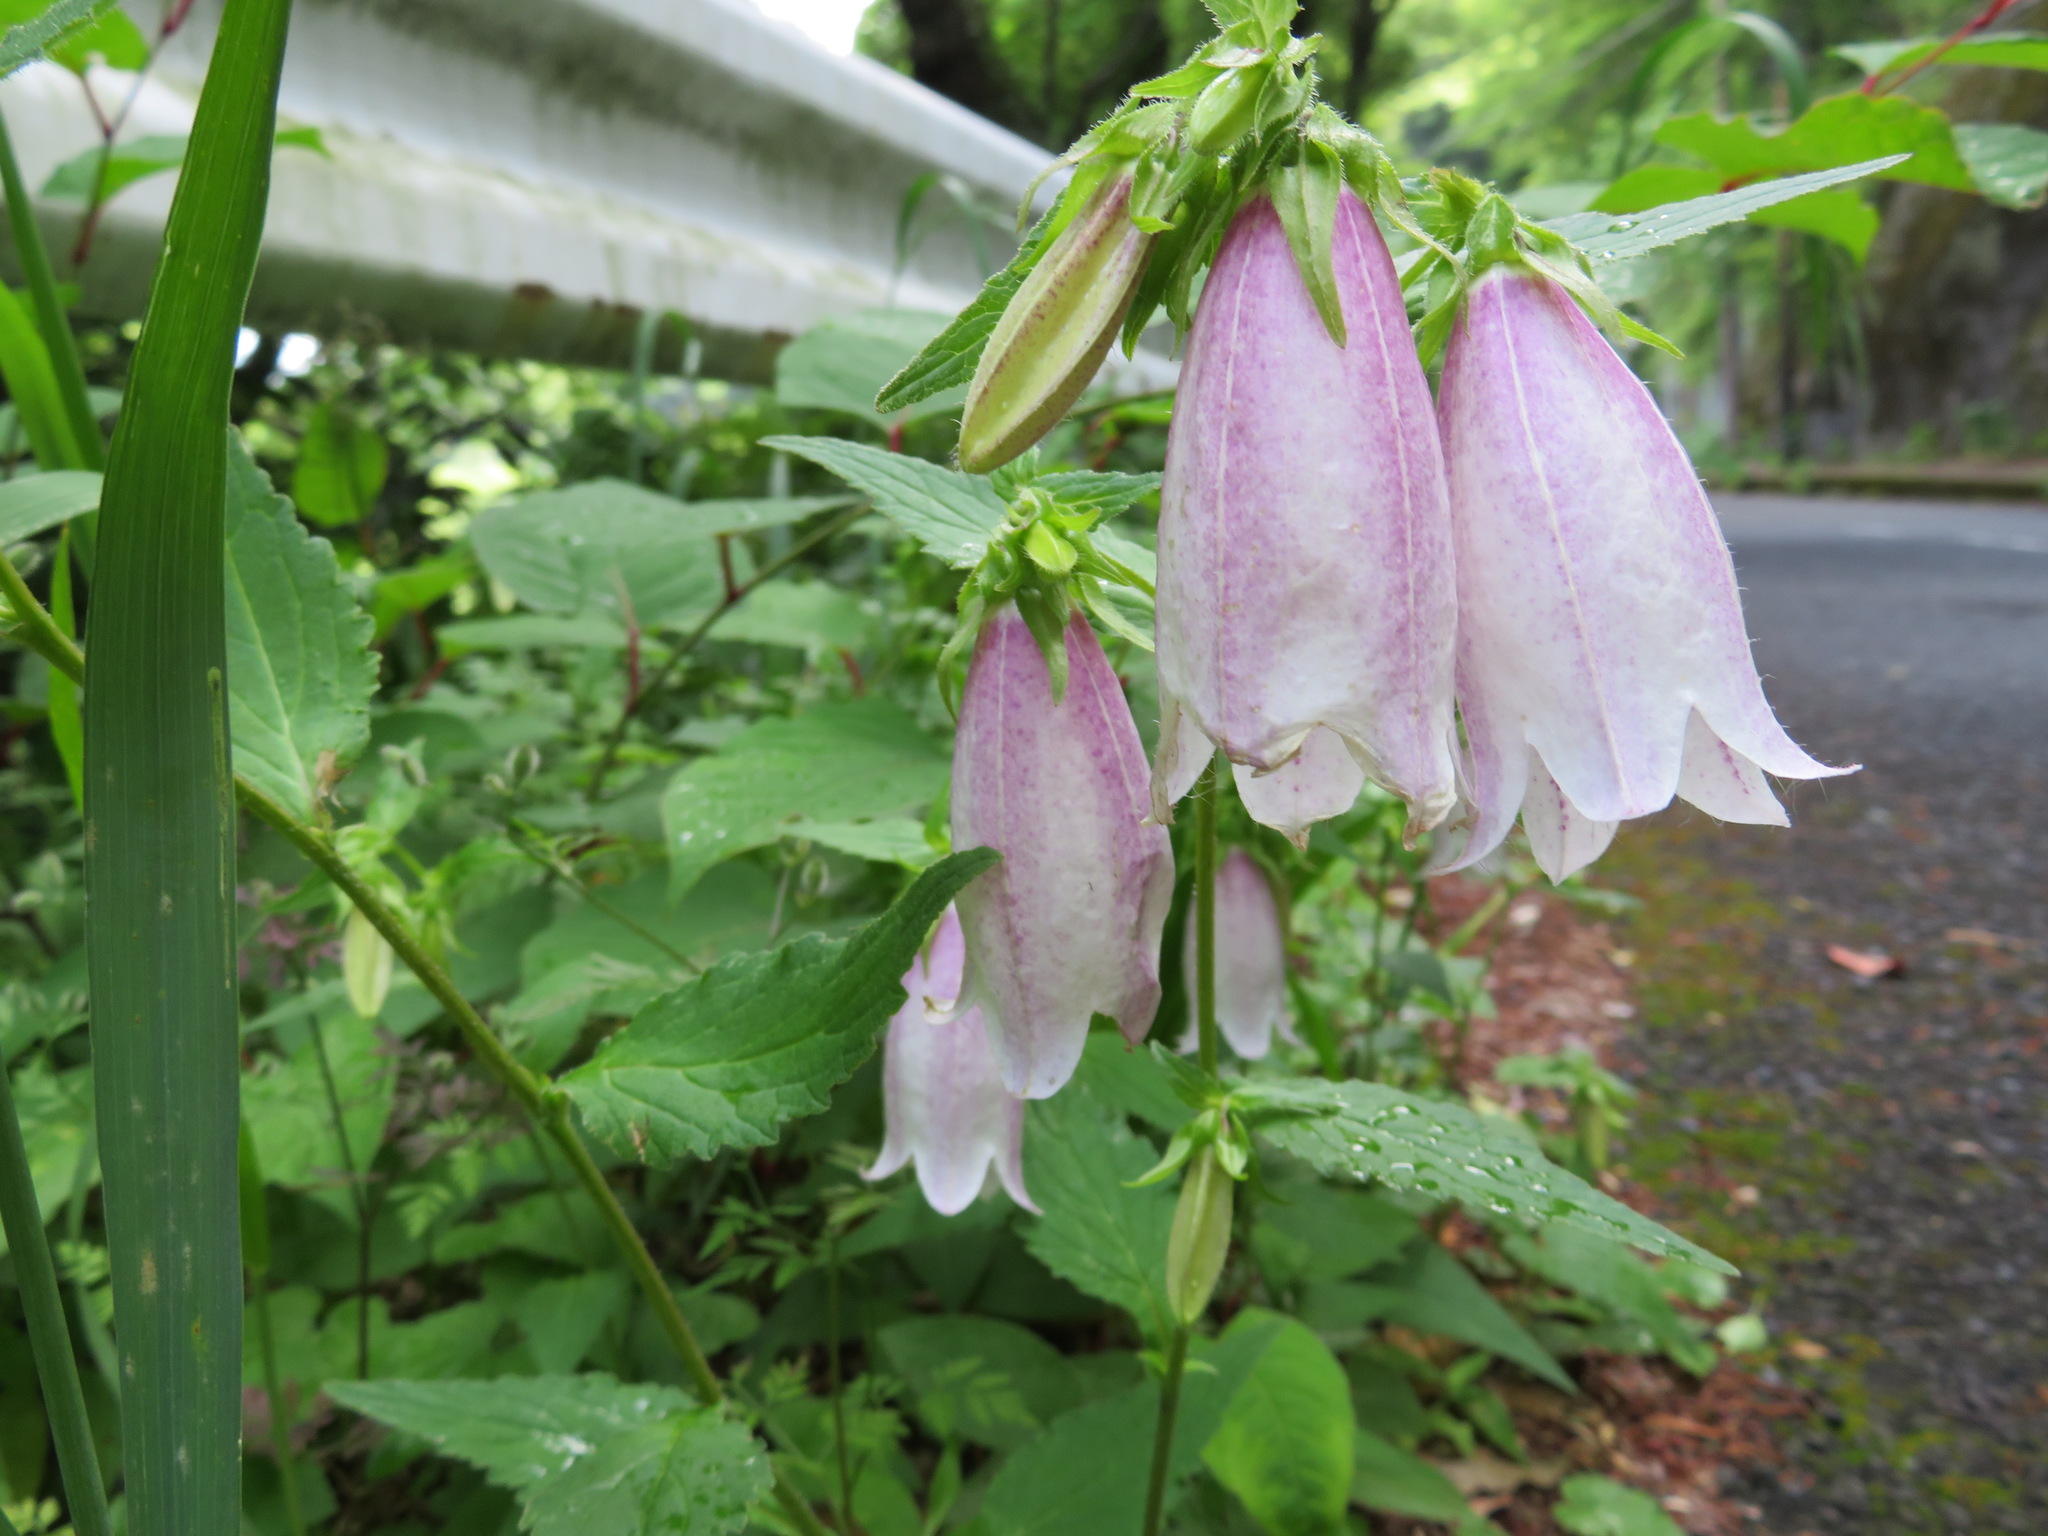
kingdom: Plantae
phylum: Tracheophyta
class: Magnoliopsida
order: Asterales
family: Campanulaceae
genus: Campanula
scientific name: Campanula punctata
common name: Spotted bellflower
